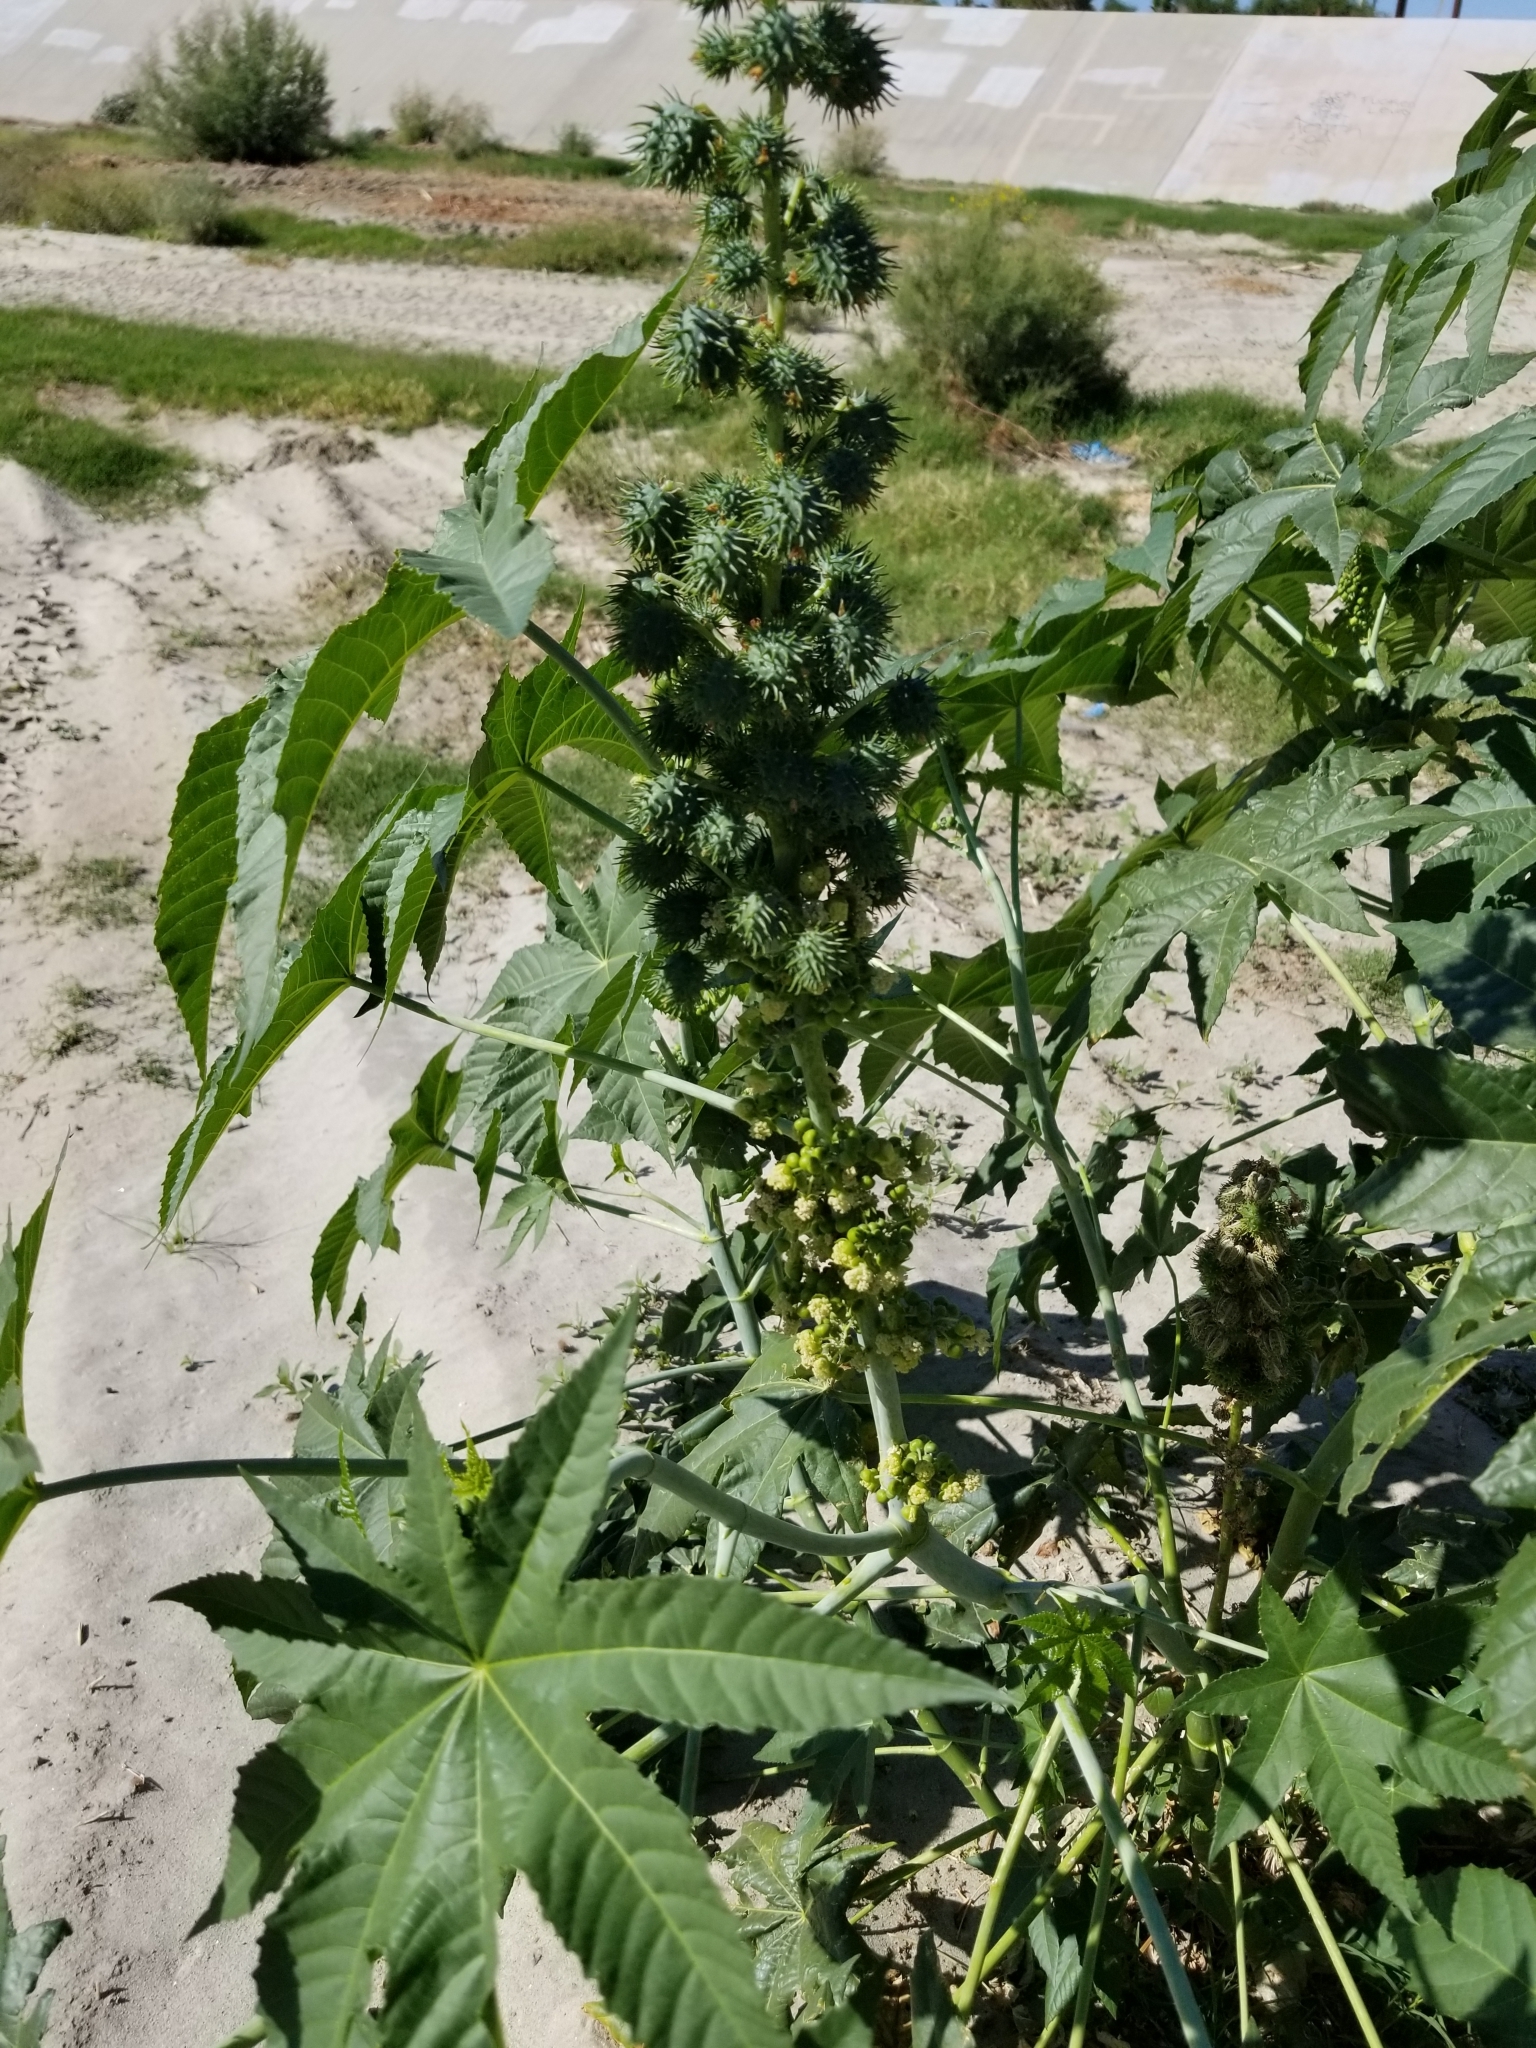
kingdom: Plantae
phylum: Tracheophyta
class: Magnoliopsida
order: Malpighiales
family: Euphorbiaceae
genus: Ricinus
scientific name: Ricinus communis
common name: Castor-oil-plant
